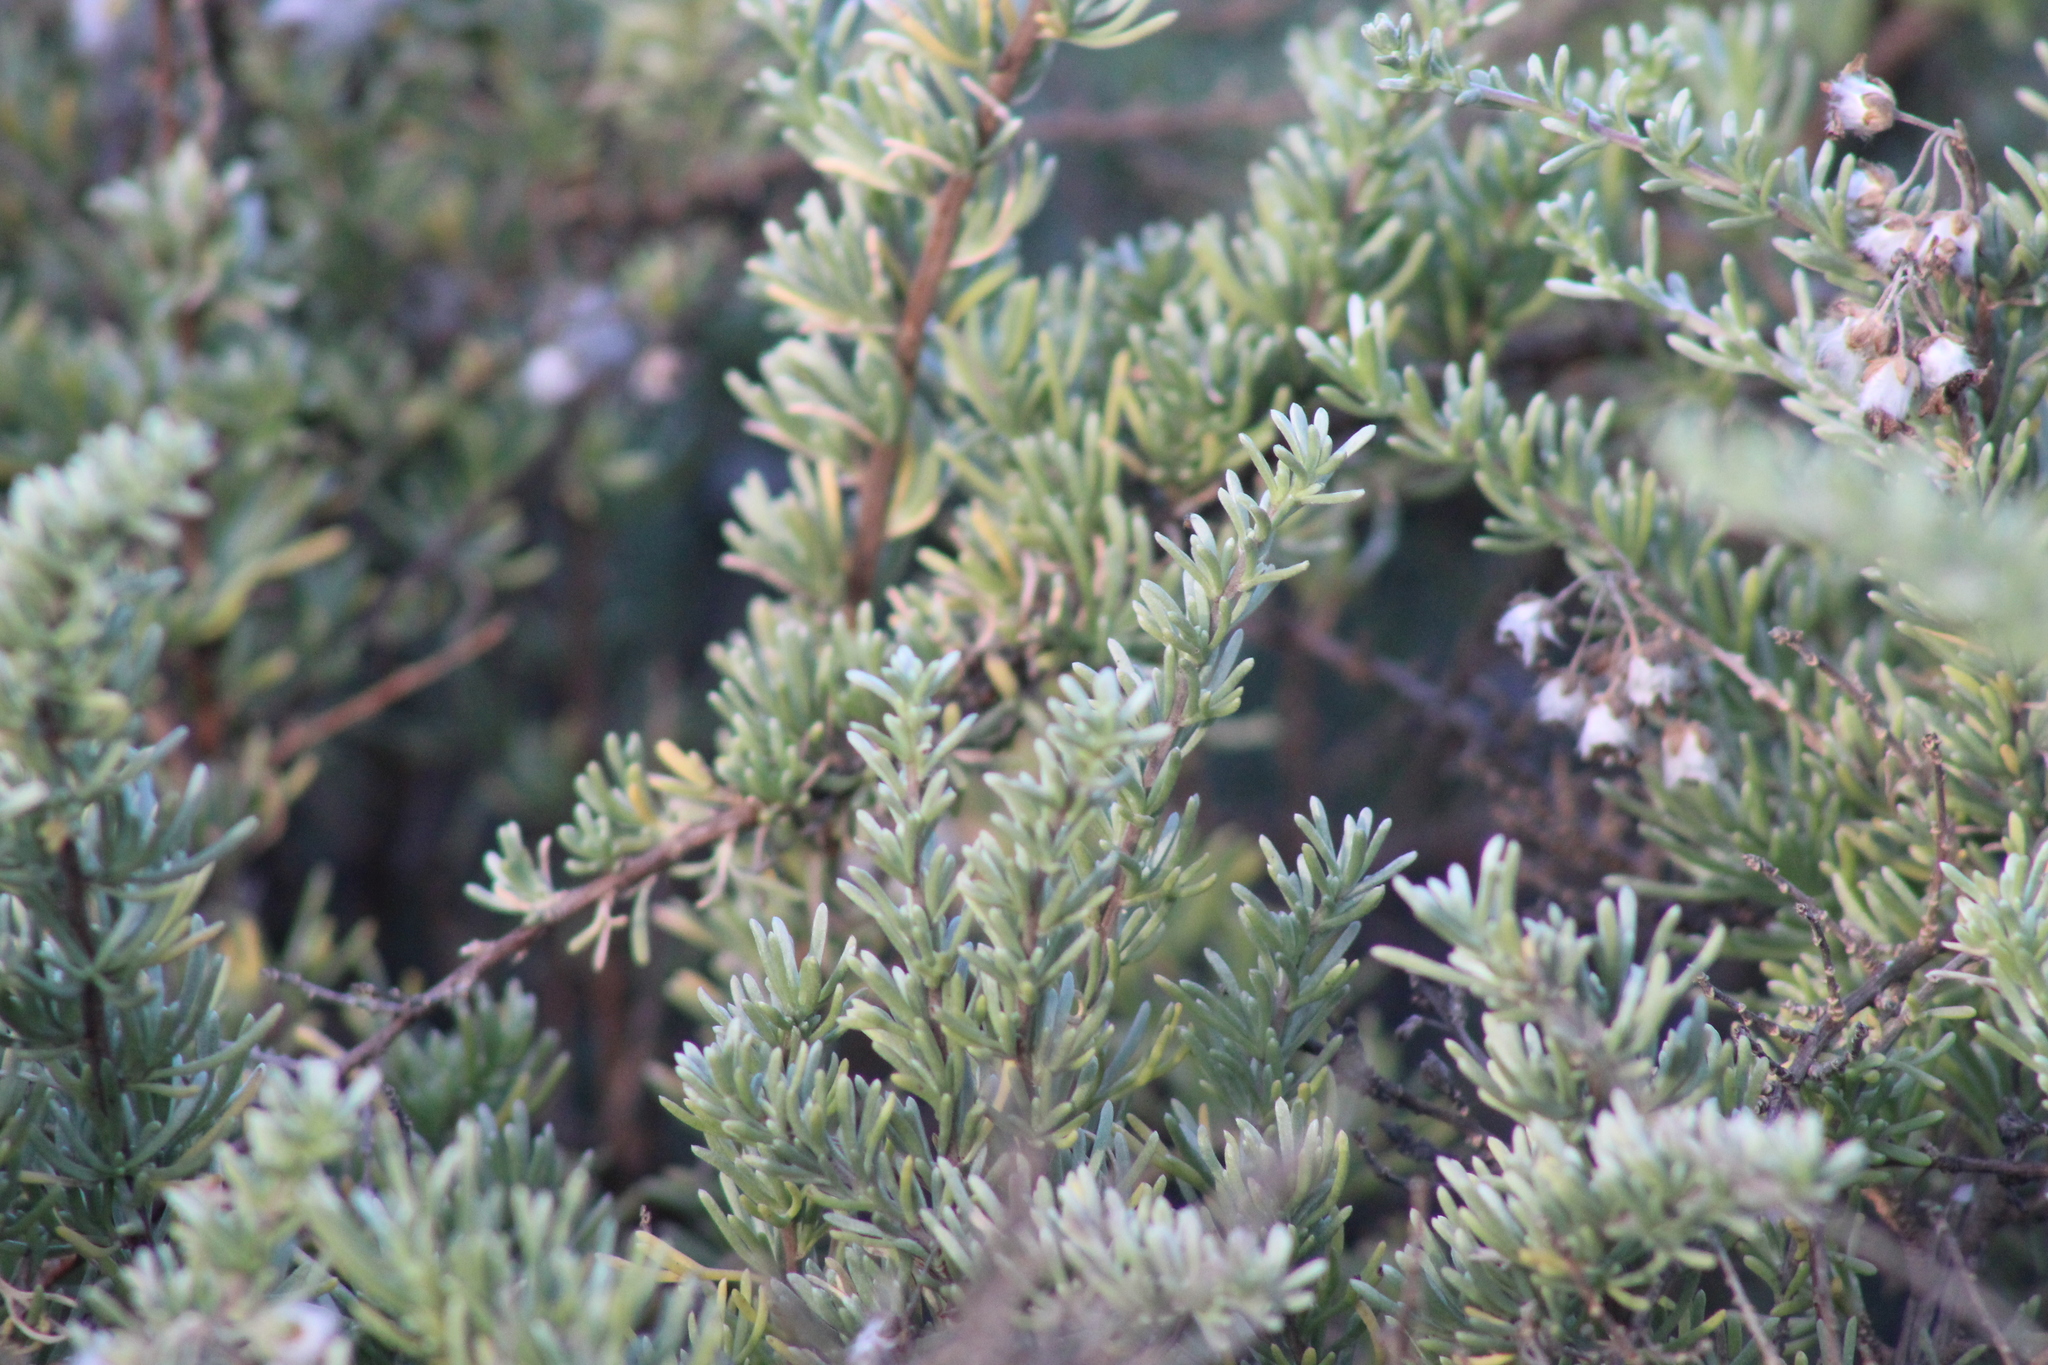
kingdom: Plantae
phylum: Tracheophyta
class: Magnoliopsida
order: Asterales
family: Asteraceae
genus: Eriocephalus
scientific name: Eriocephalus africanus
